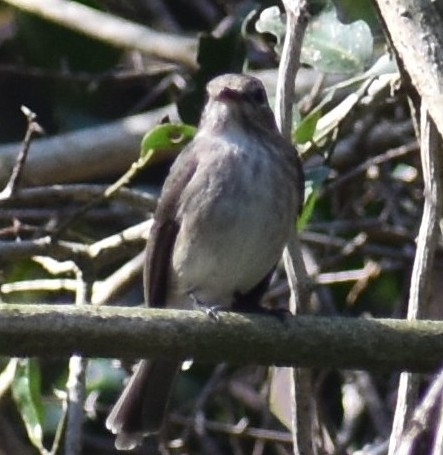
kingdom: Animalia
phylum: Chordata
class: Aves
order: Passeriformes
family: Muscicapidae
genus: Muscicapa
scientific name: Muscicapa adusta
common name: African dusky flycatcher
